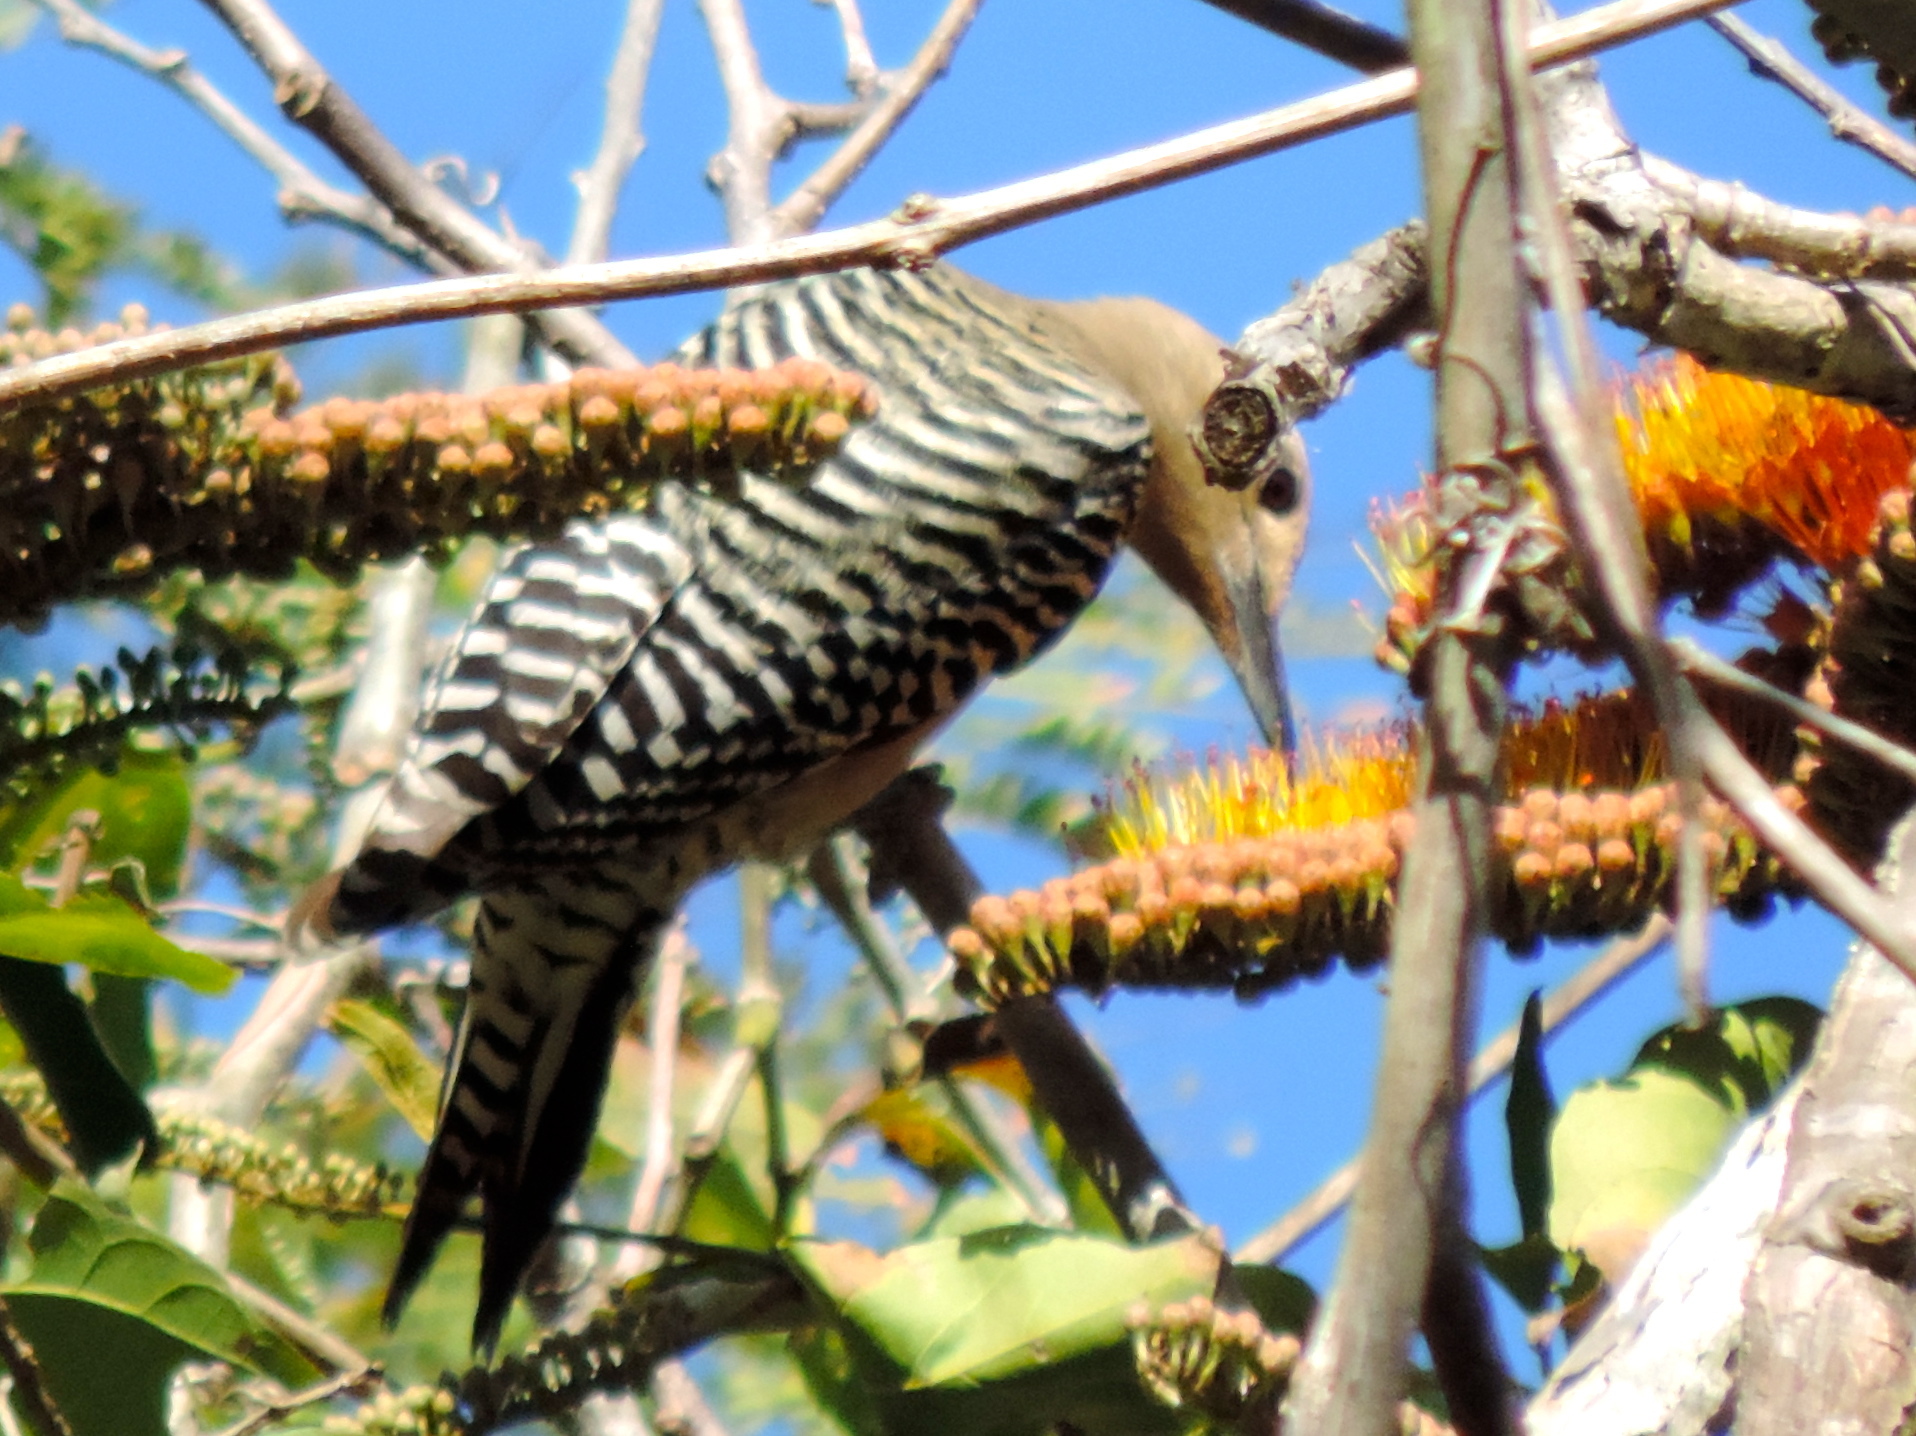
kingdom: Animalia
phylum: Chordata
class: Aves
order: Piciformes
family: Picidae
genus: Melanerpes
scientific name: Melanerpes uropygialis
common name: Gila woodpecker
